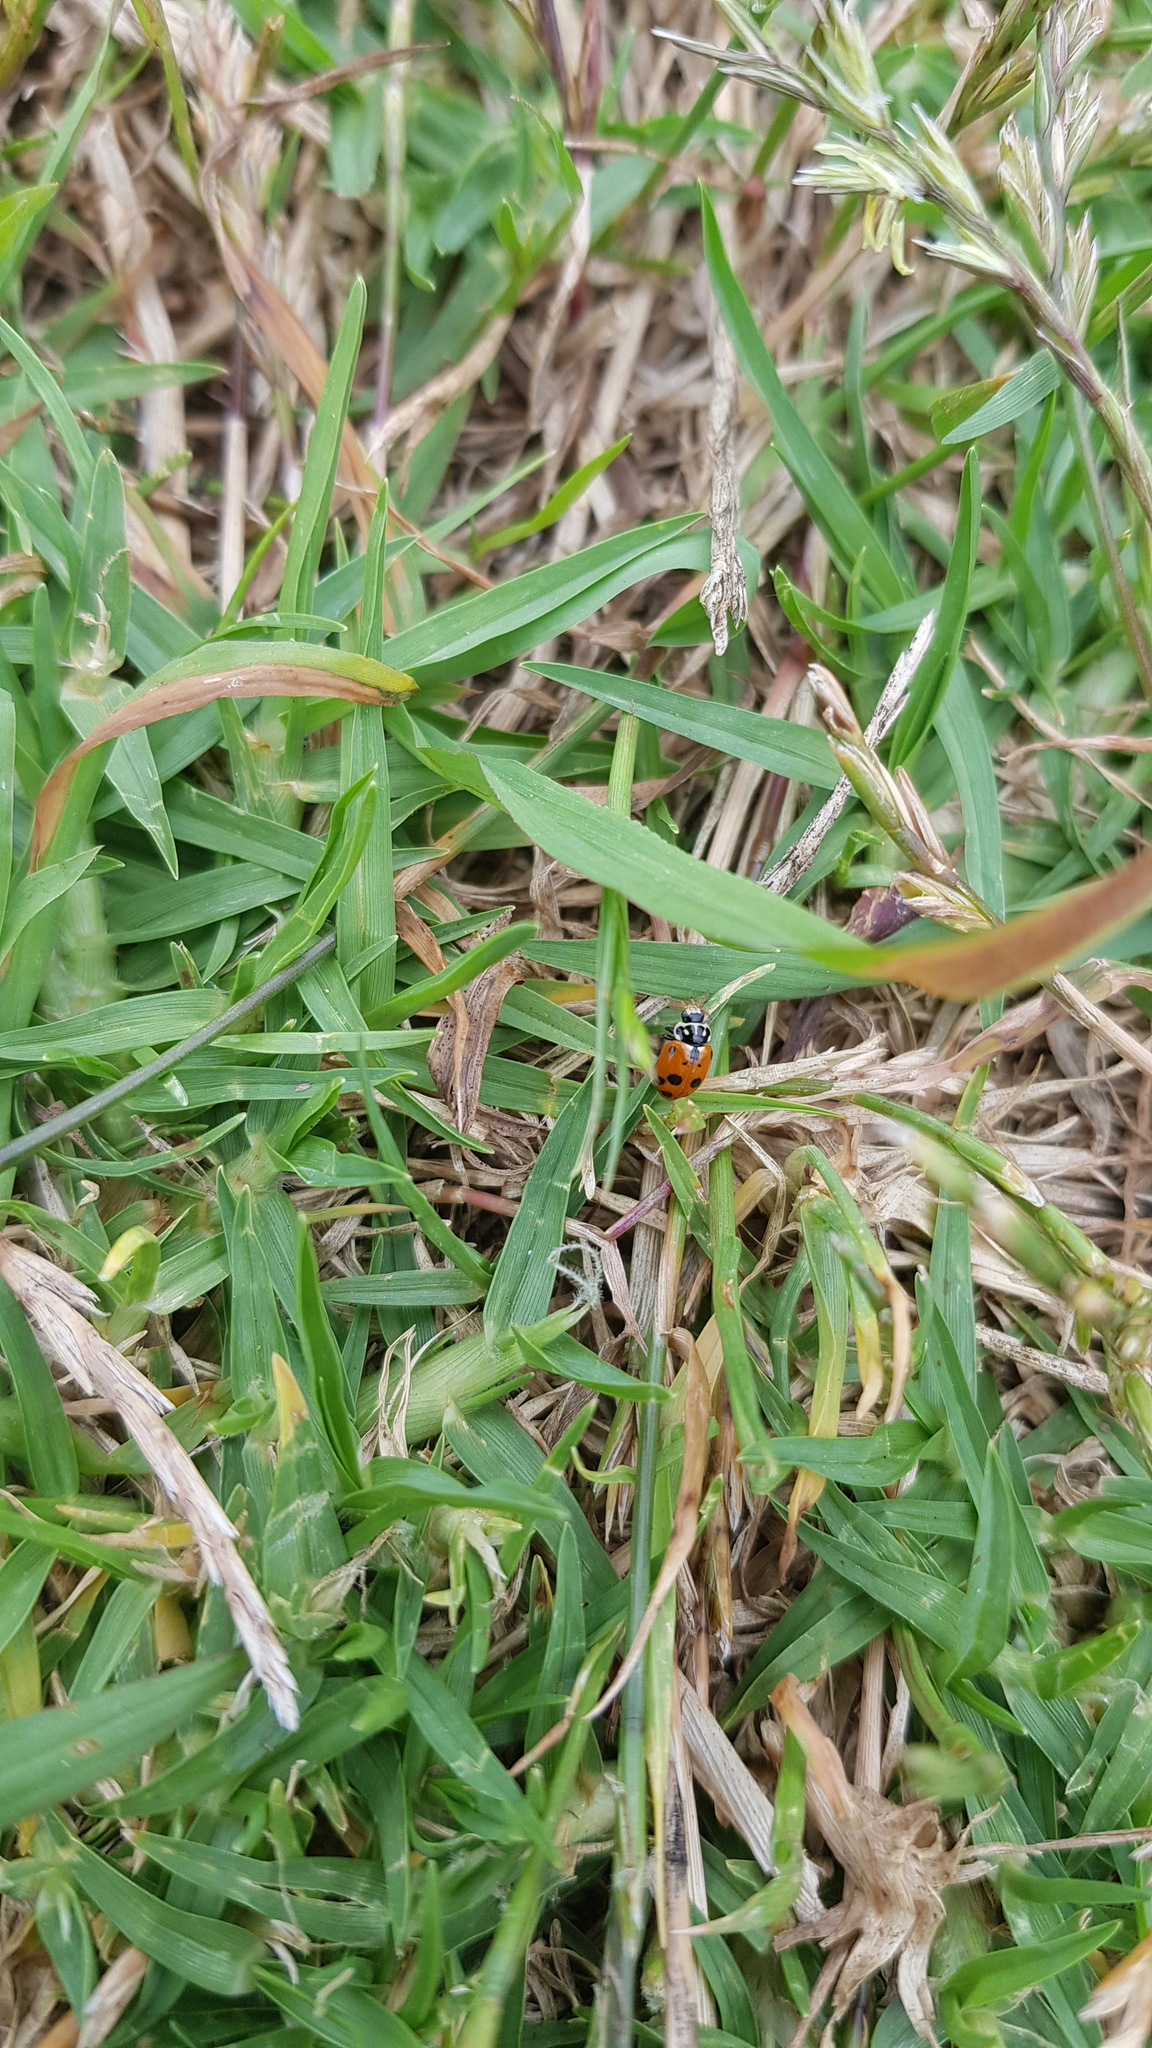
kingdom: Animalia
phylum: Arthropoda
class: Insecta
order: Coleoptera
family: Coccinellidae
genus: Hippodamia
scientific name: Hippodamia variegata
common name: Ladybird beetle
